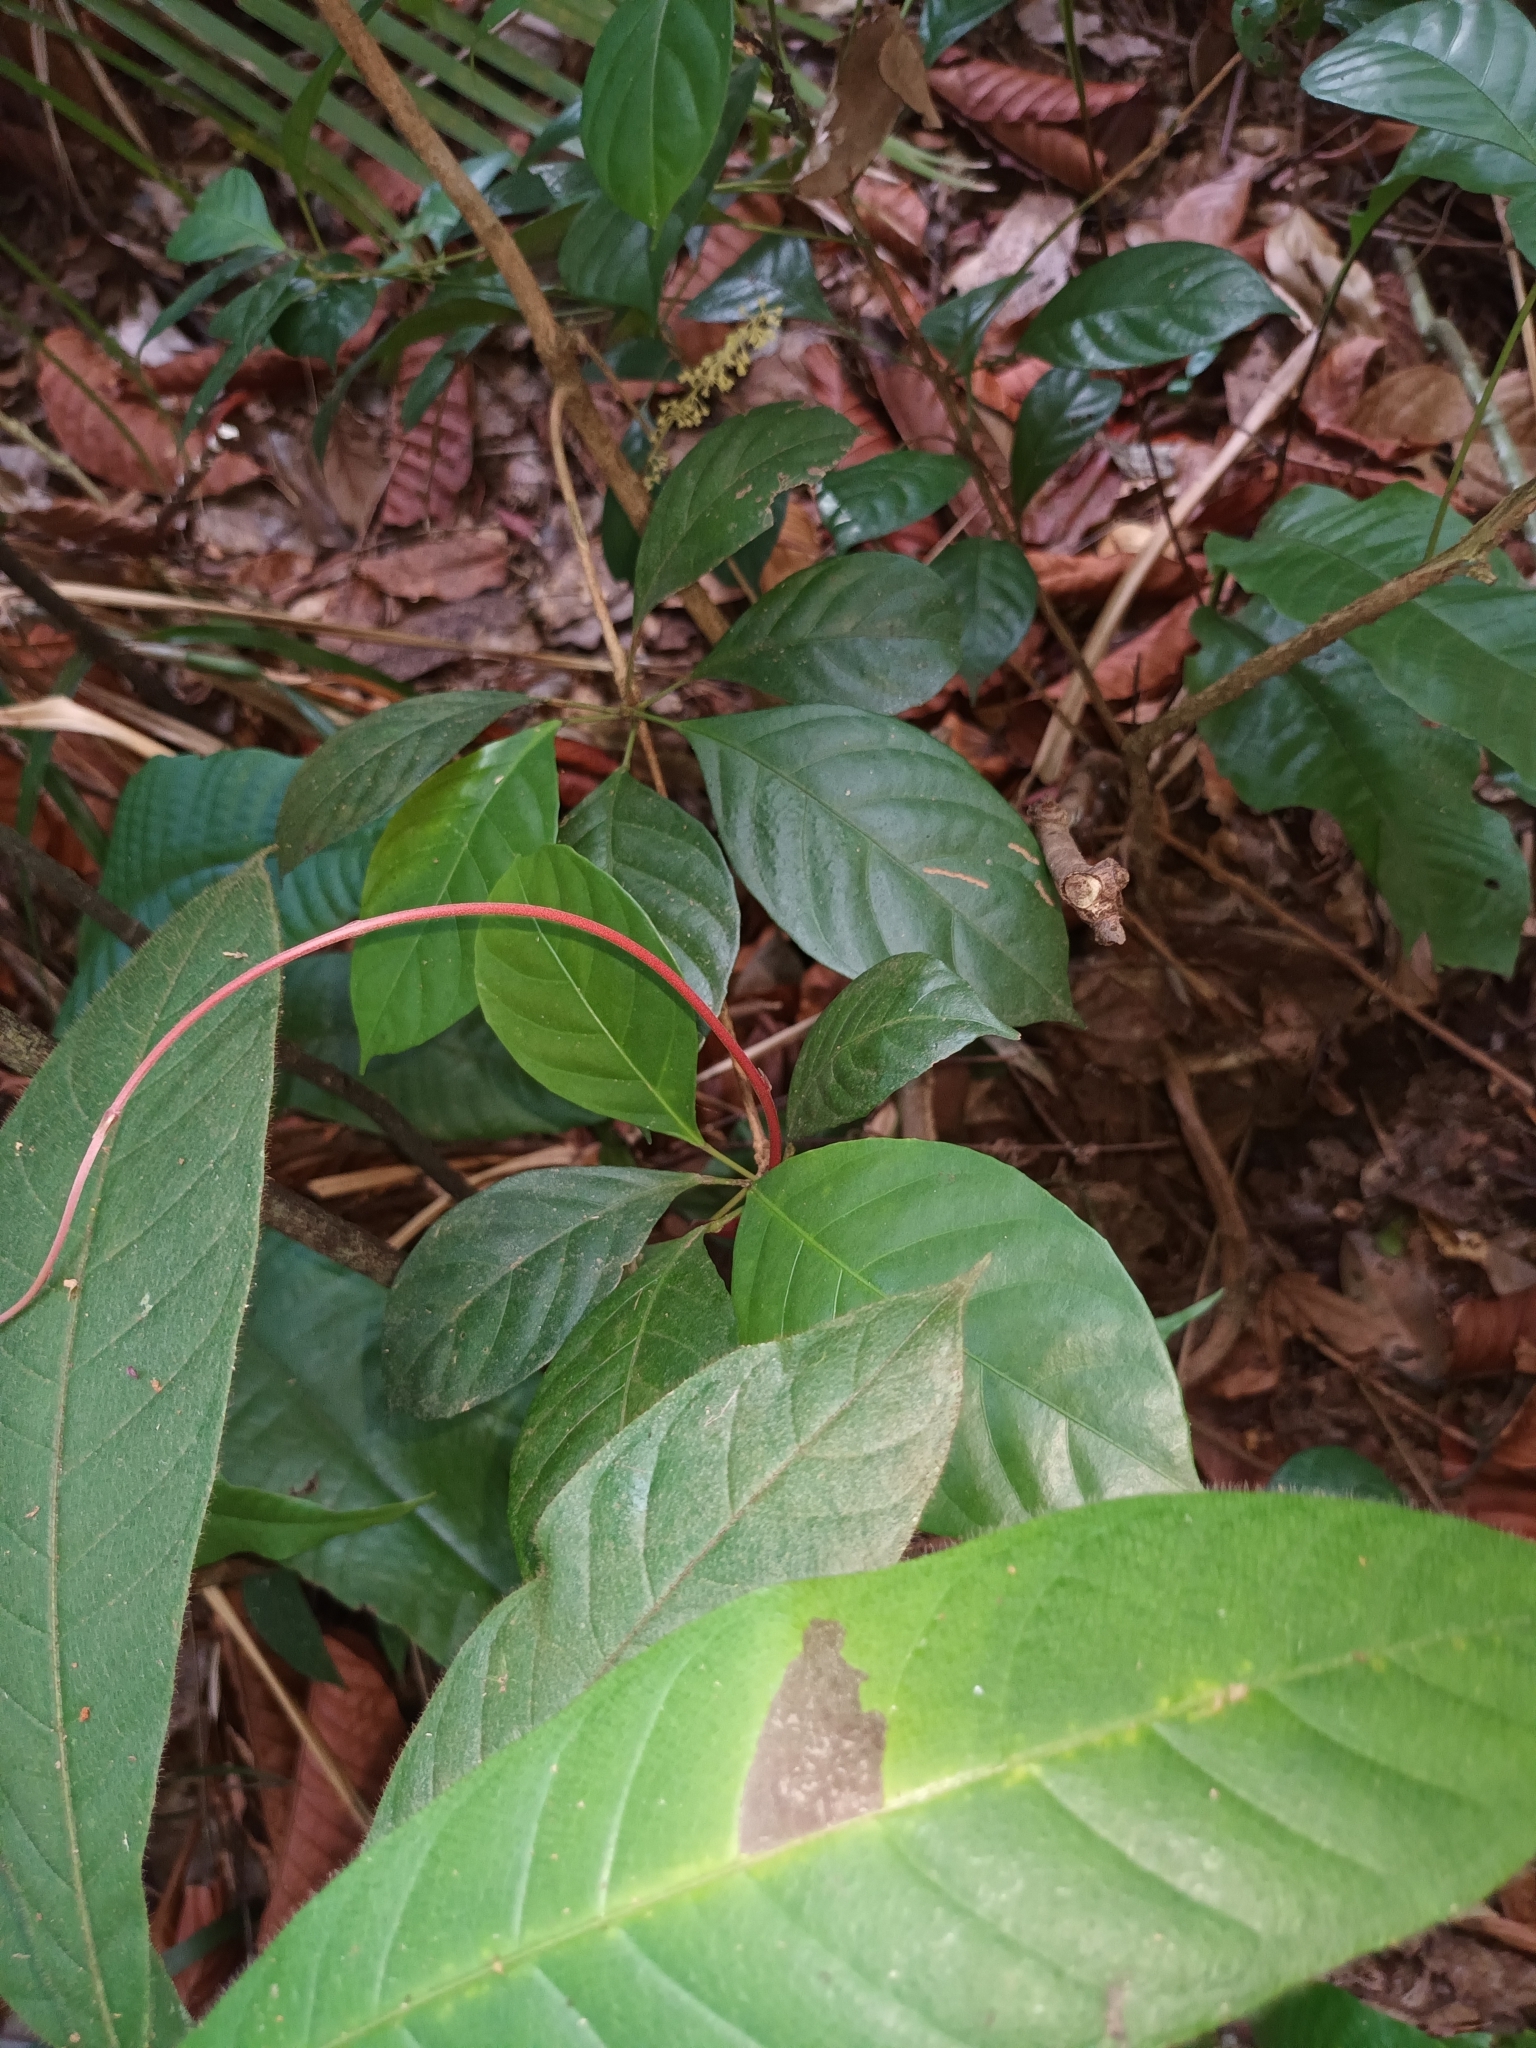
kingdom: Plantae
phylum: Tracheophyta
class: Magnoliopsida
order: Malpighiales
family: Phyllanthaceae
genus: Baccaurea
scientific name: Baccaurea parviflora
